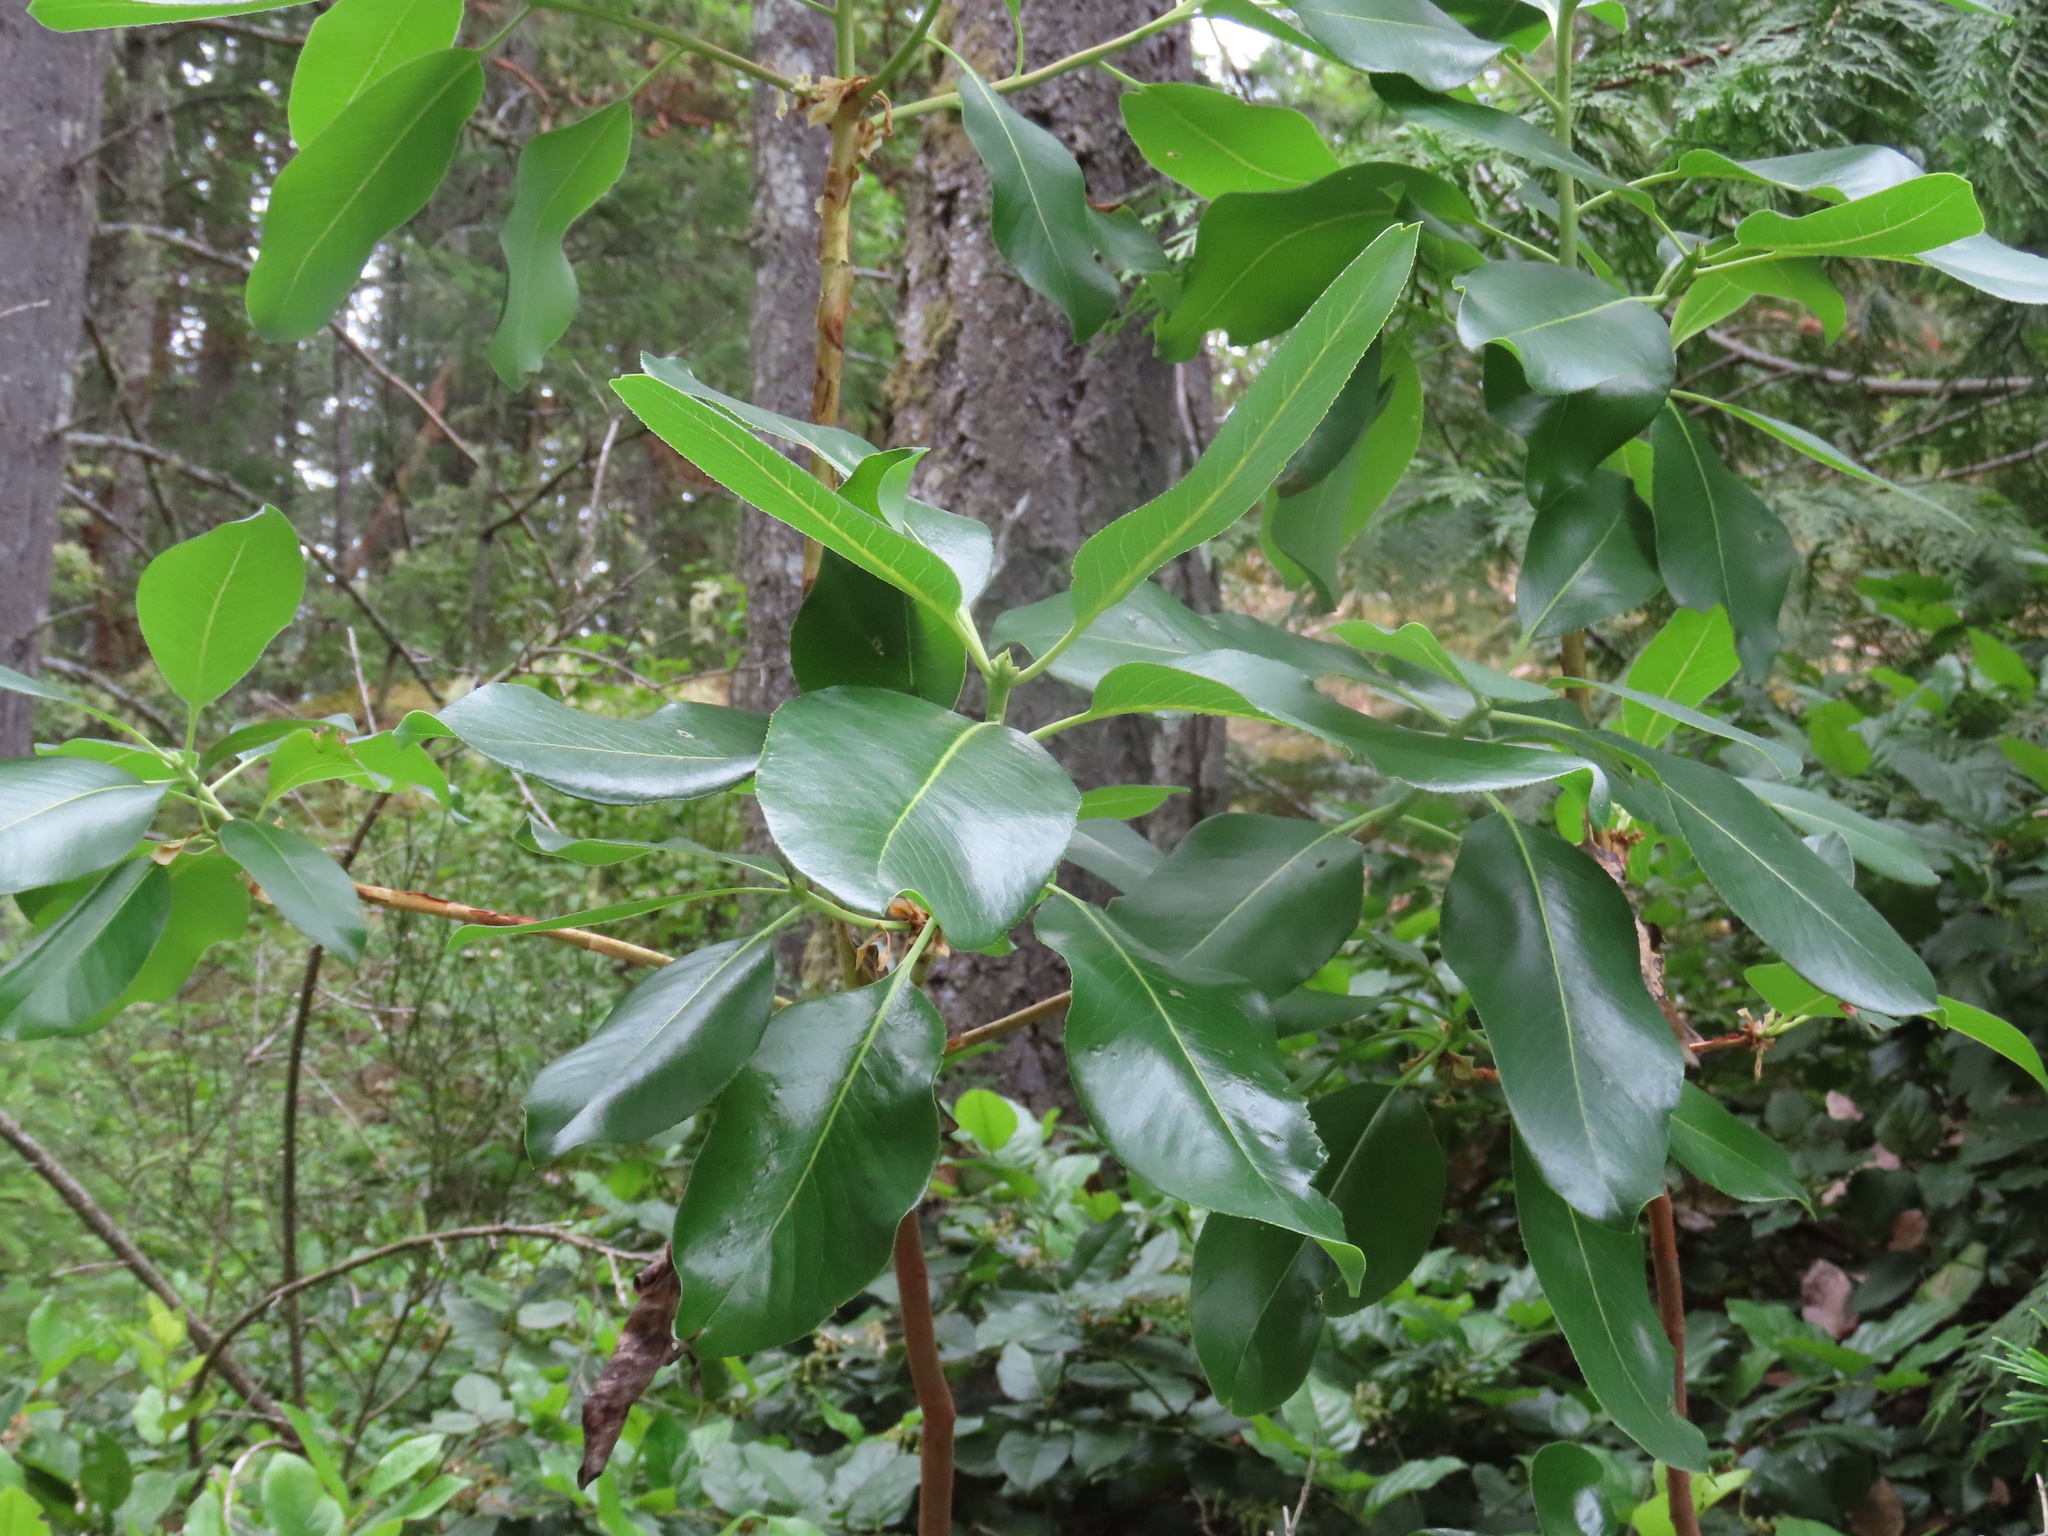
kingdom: Plantae
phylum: Tracheophyta
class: Magnoliopsida
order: Ericales
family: Ericaceae
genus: Arbutus
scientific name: Arbutus menziesii
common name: Pacific madrone
